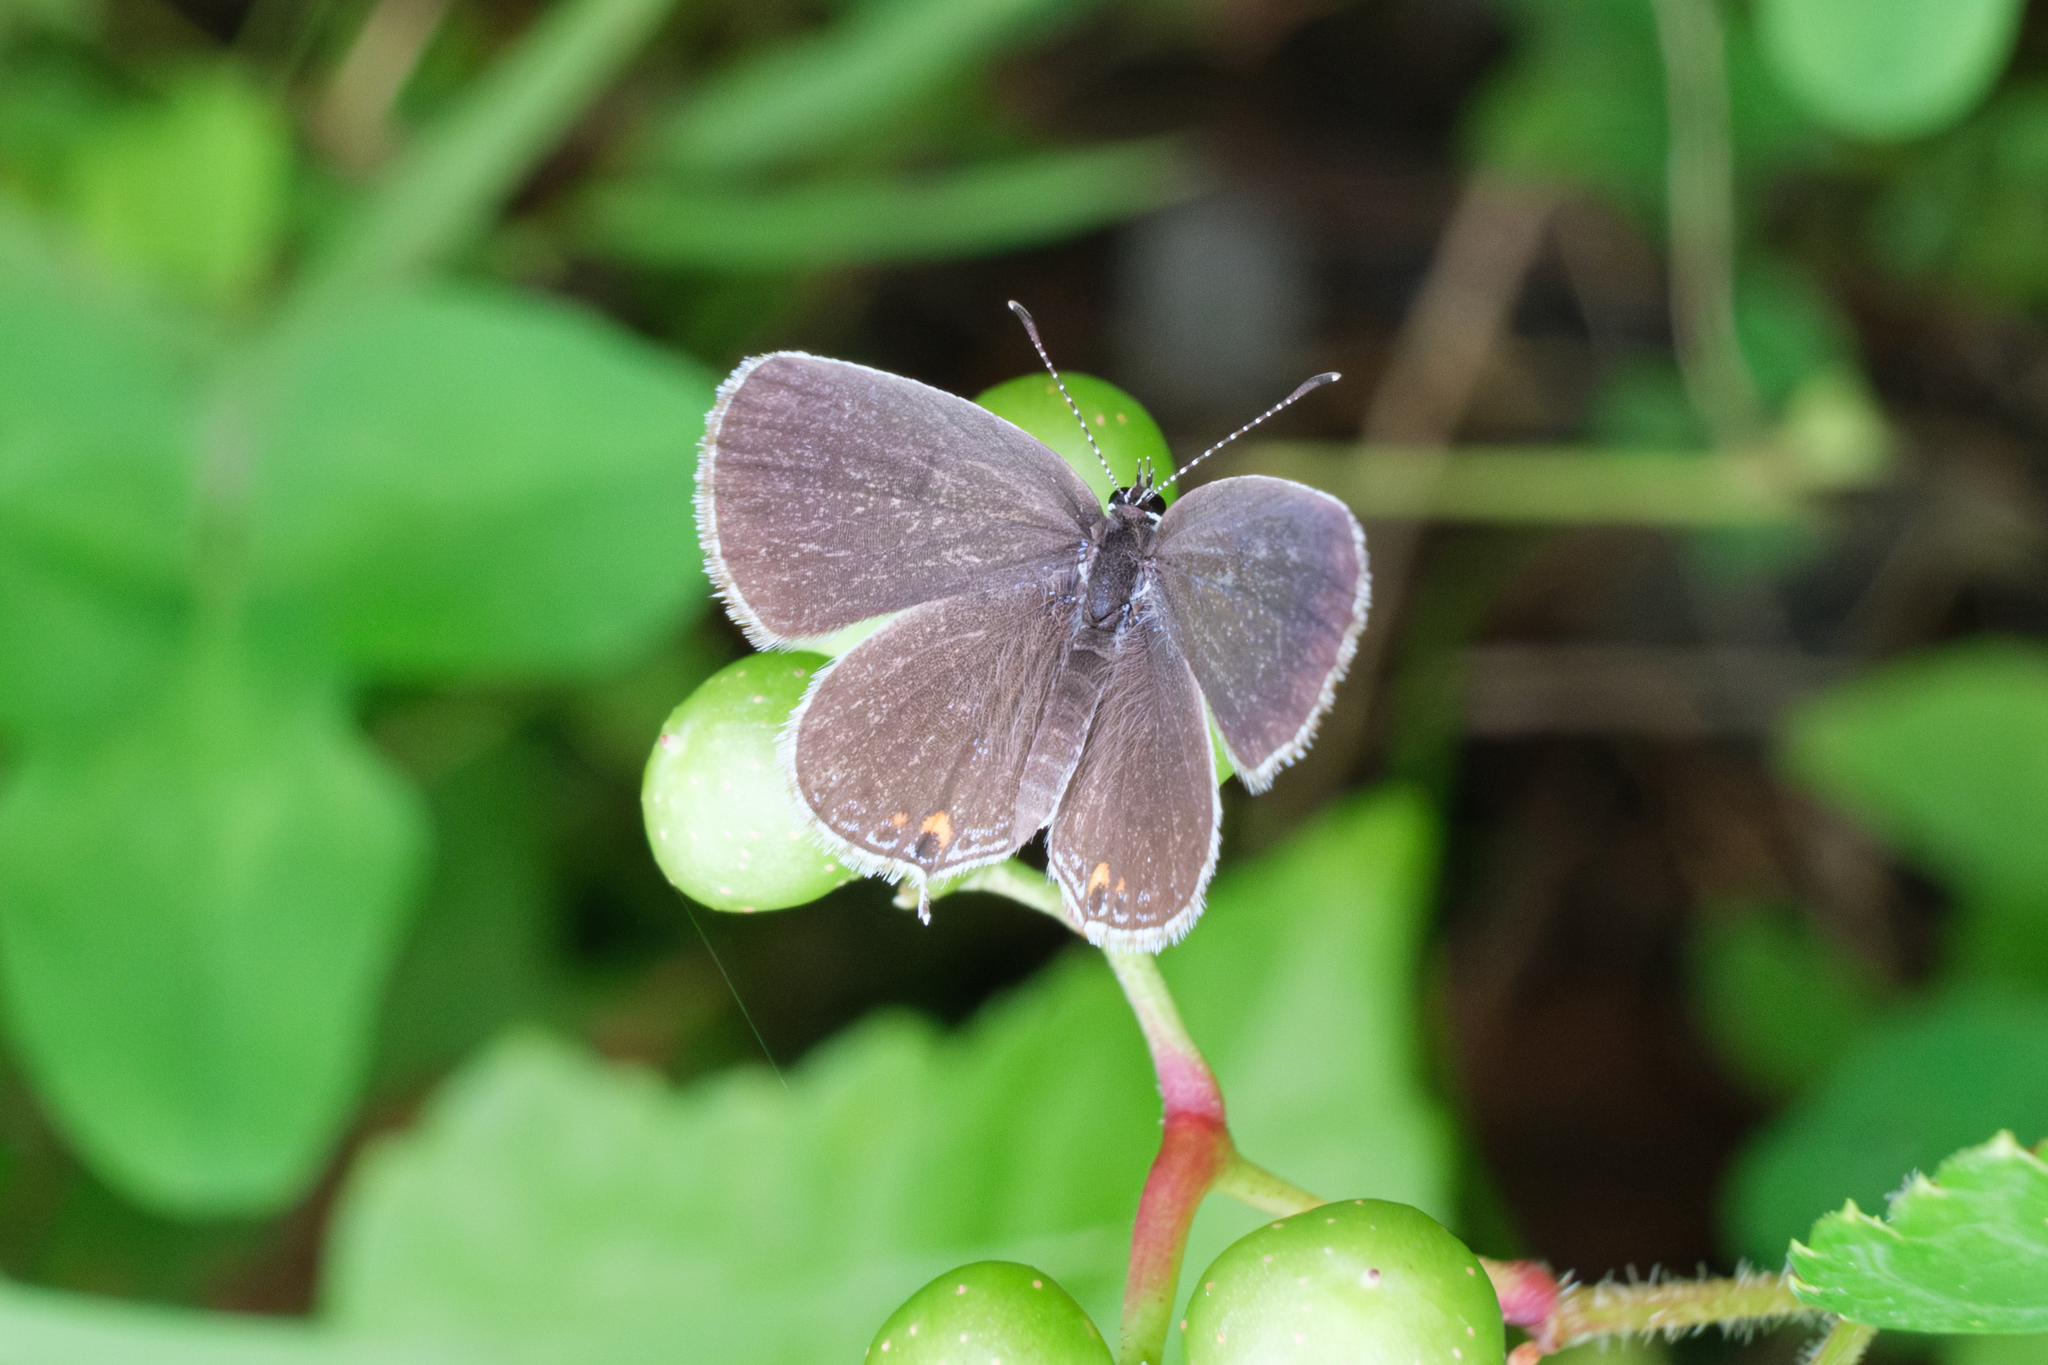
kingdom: Animalia
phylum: Arthropoda
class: Insecta
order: Lepidoptera
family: Lycaenidae
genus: Elkalyce
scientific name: Elkalyce comyntas
